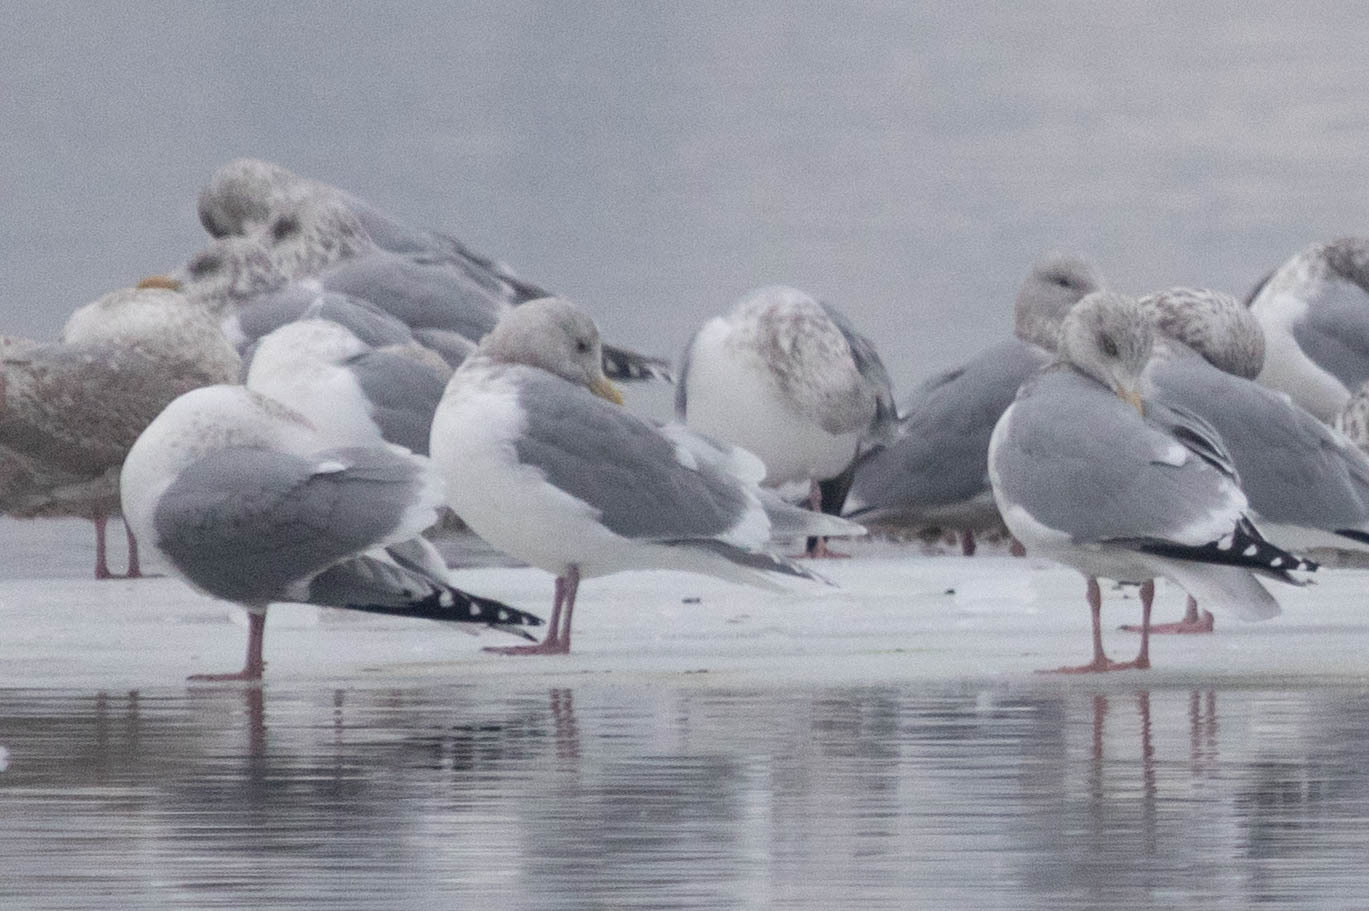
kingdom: Animalia
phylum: Chordata
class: Aves
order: Charadriiformes
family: Laridae
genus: Larus
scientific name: Larus glaucescens
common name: Glaucous-winged gull
